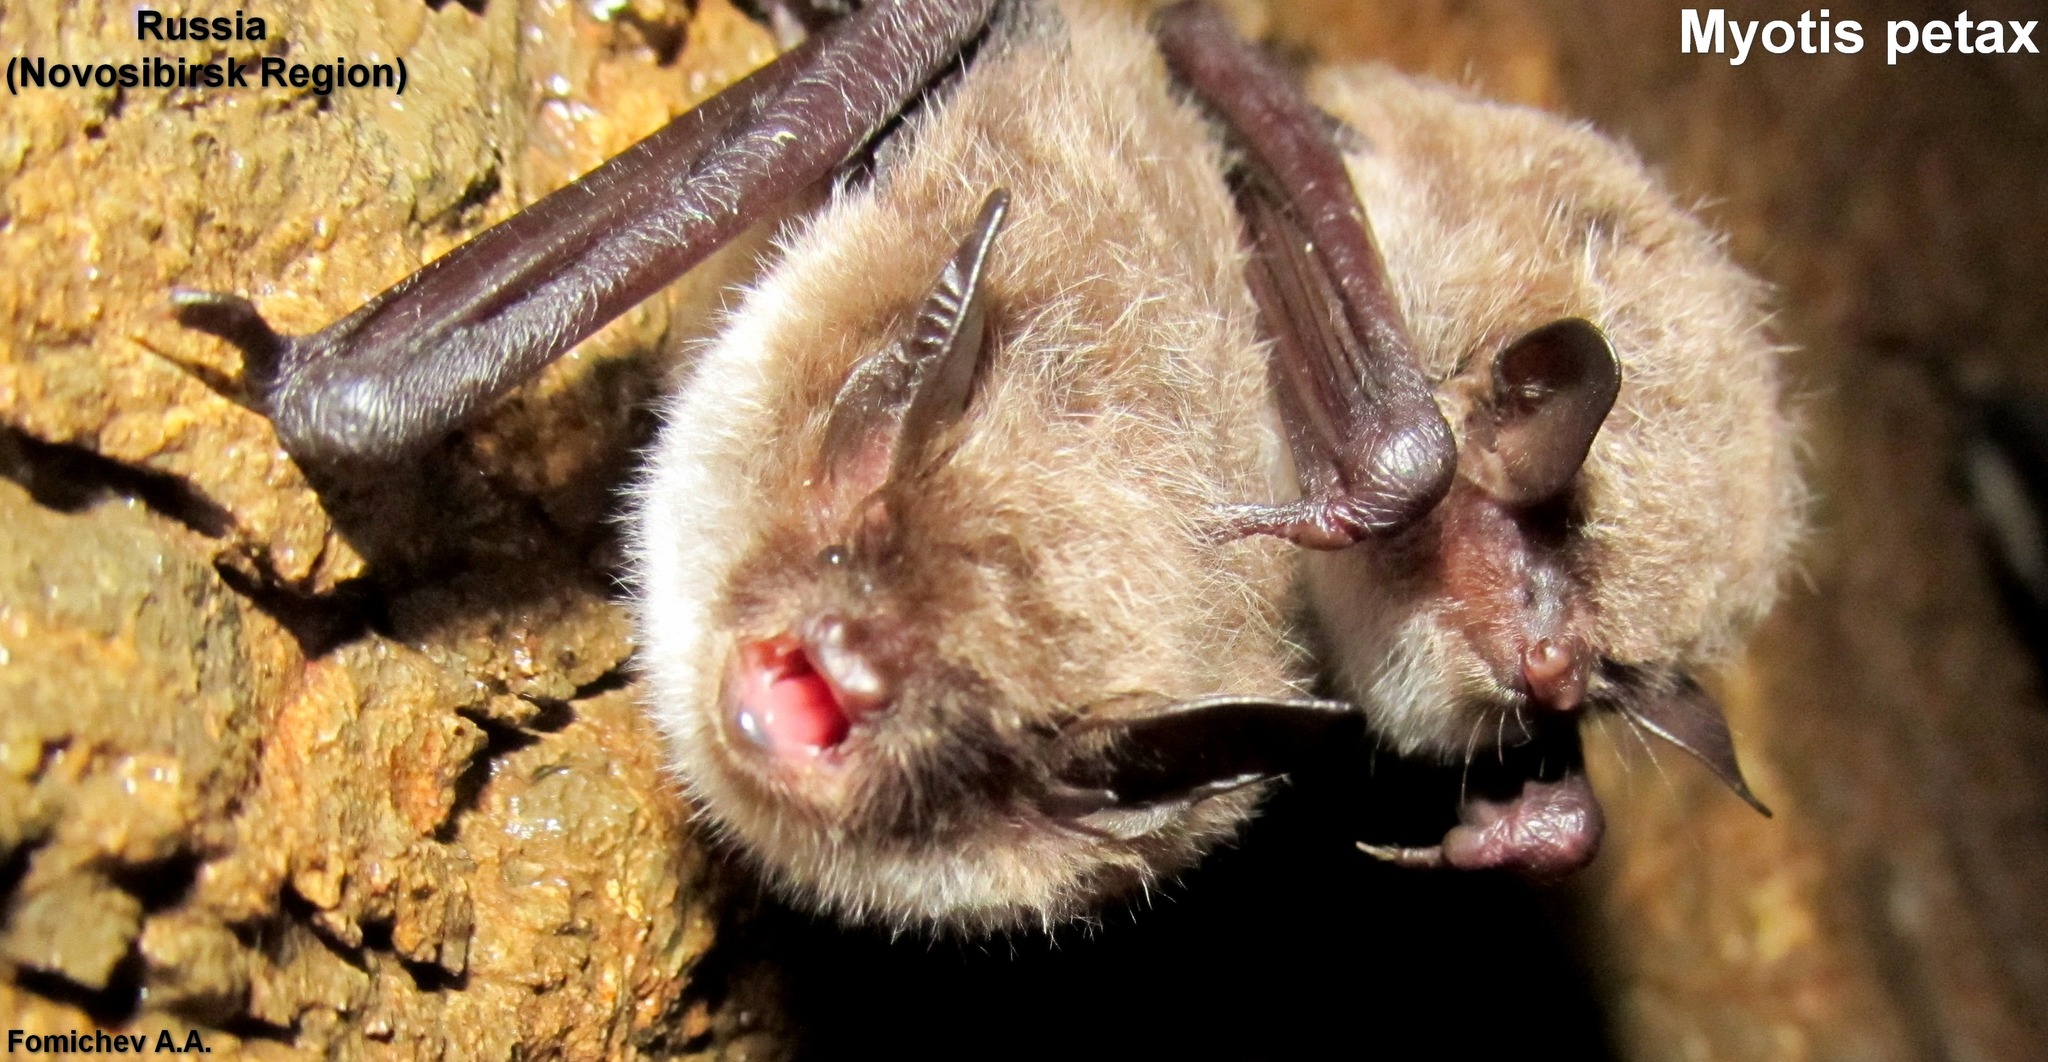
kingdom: Animalia
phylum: Chordata
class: Mammalia
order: Chiroptera
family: Vespertilionidae
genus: Myotis
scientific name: Myotis petax
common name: Russian myotis
